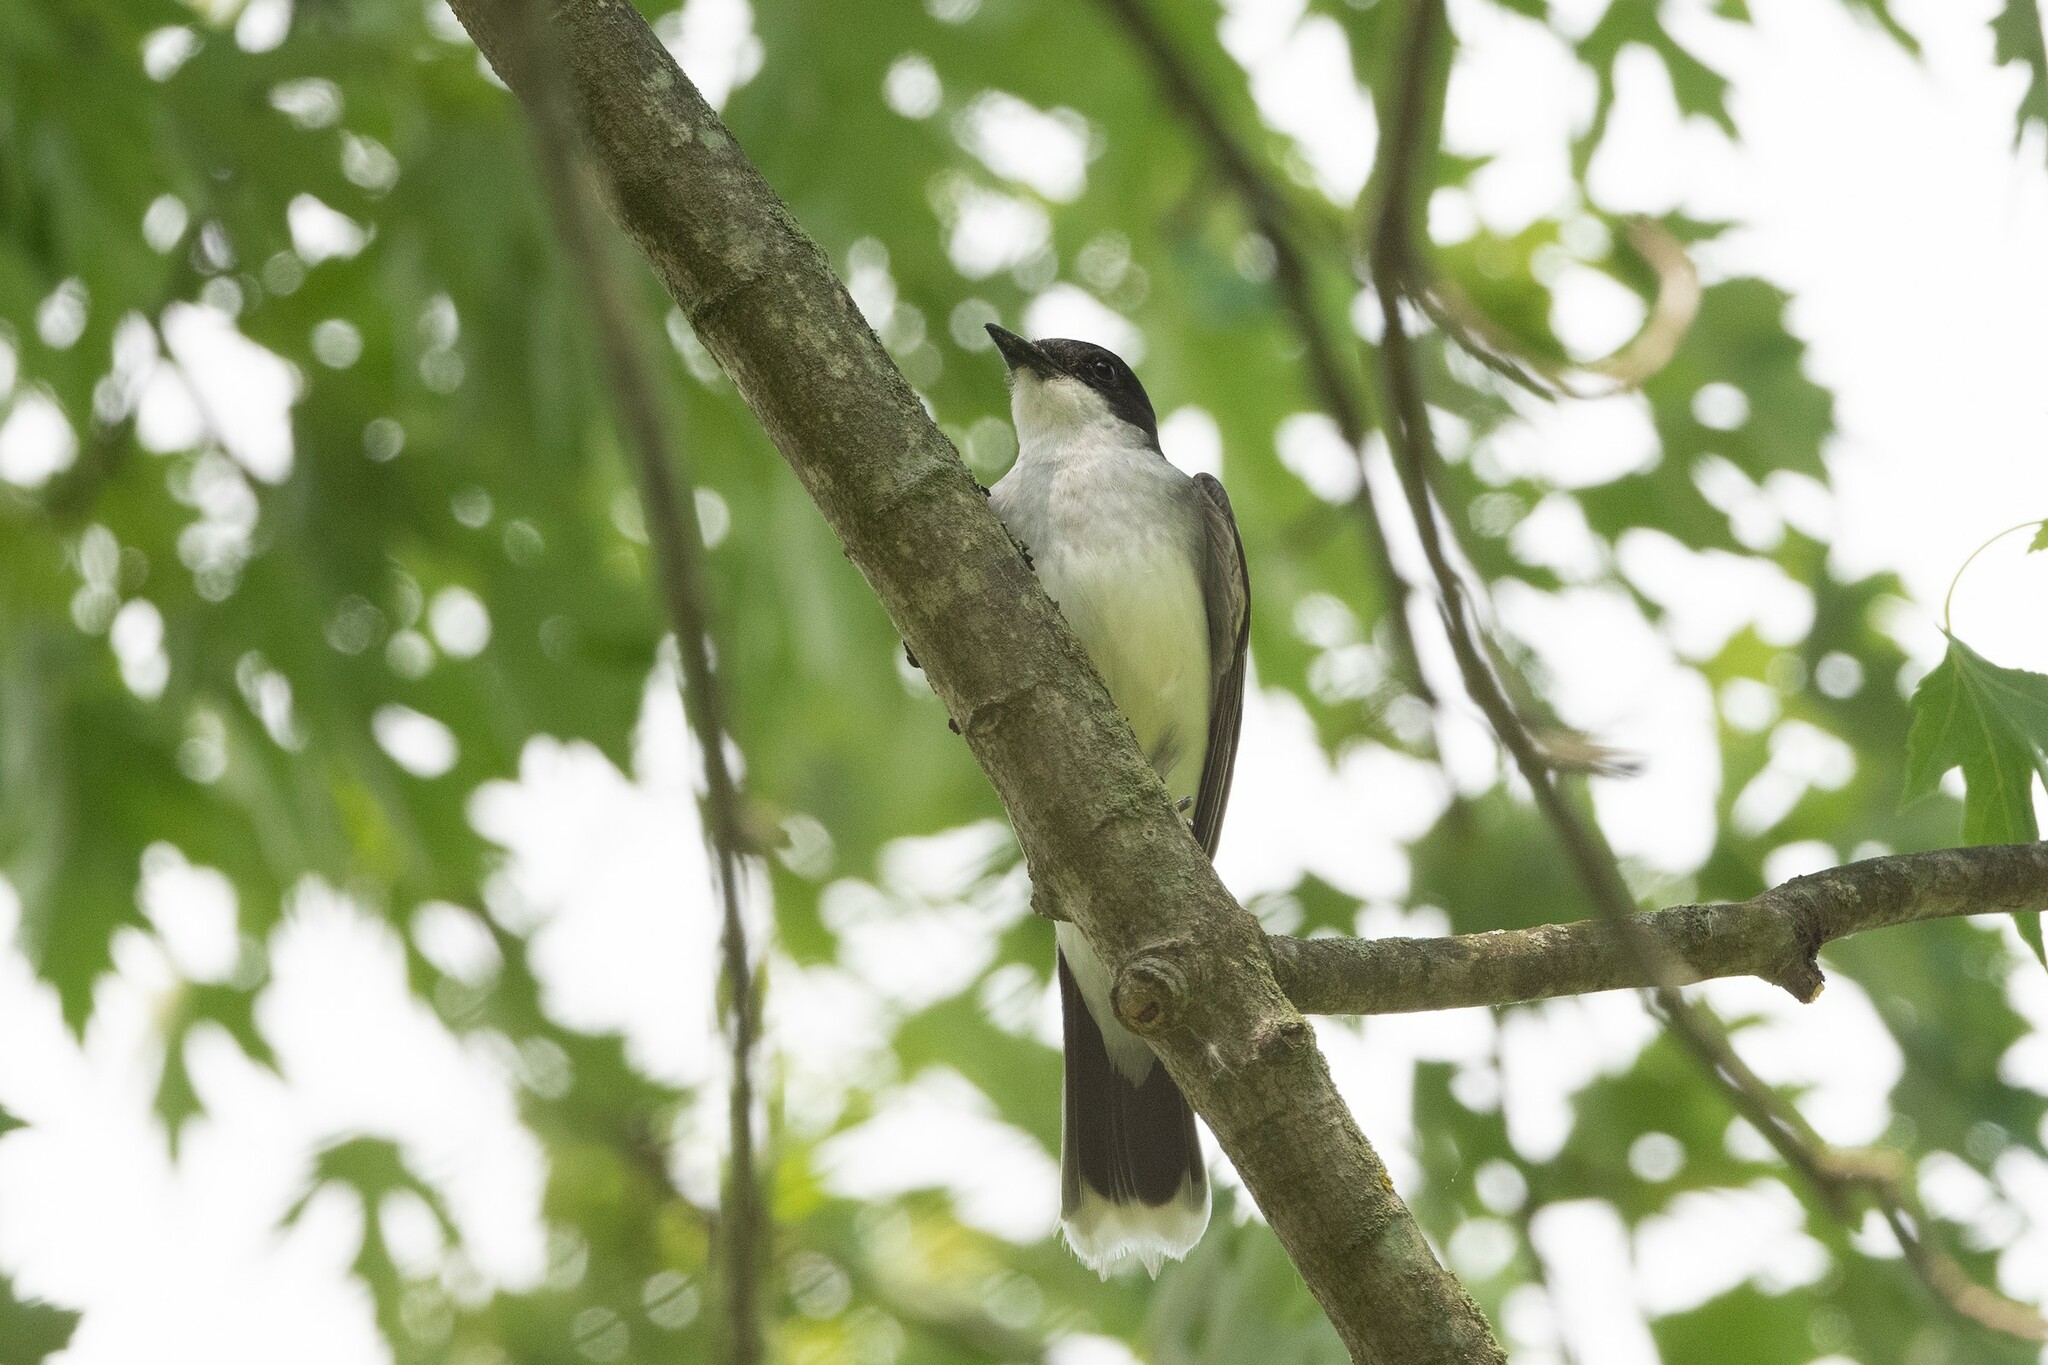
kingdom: Animalia
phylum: Chordata
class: Aves
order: Passeriformes
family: Tyrannidae
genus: Tyrannus
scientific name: Tyrannus tyrannus
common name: Eastern kingbird
